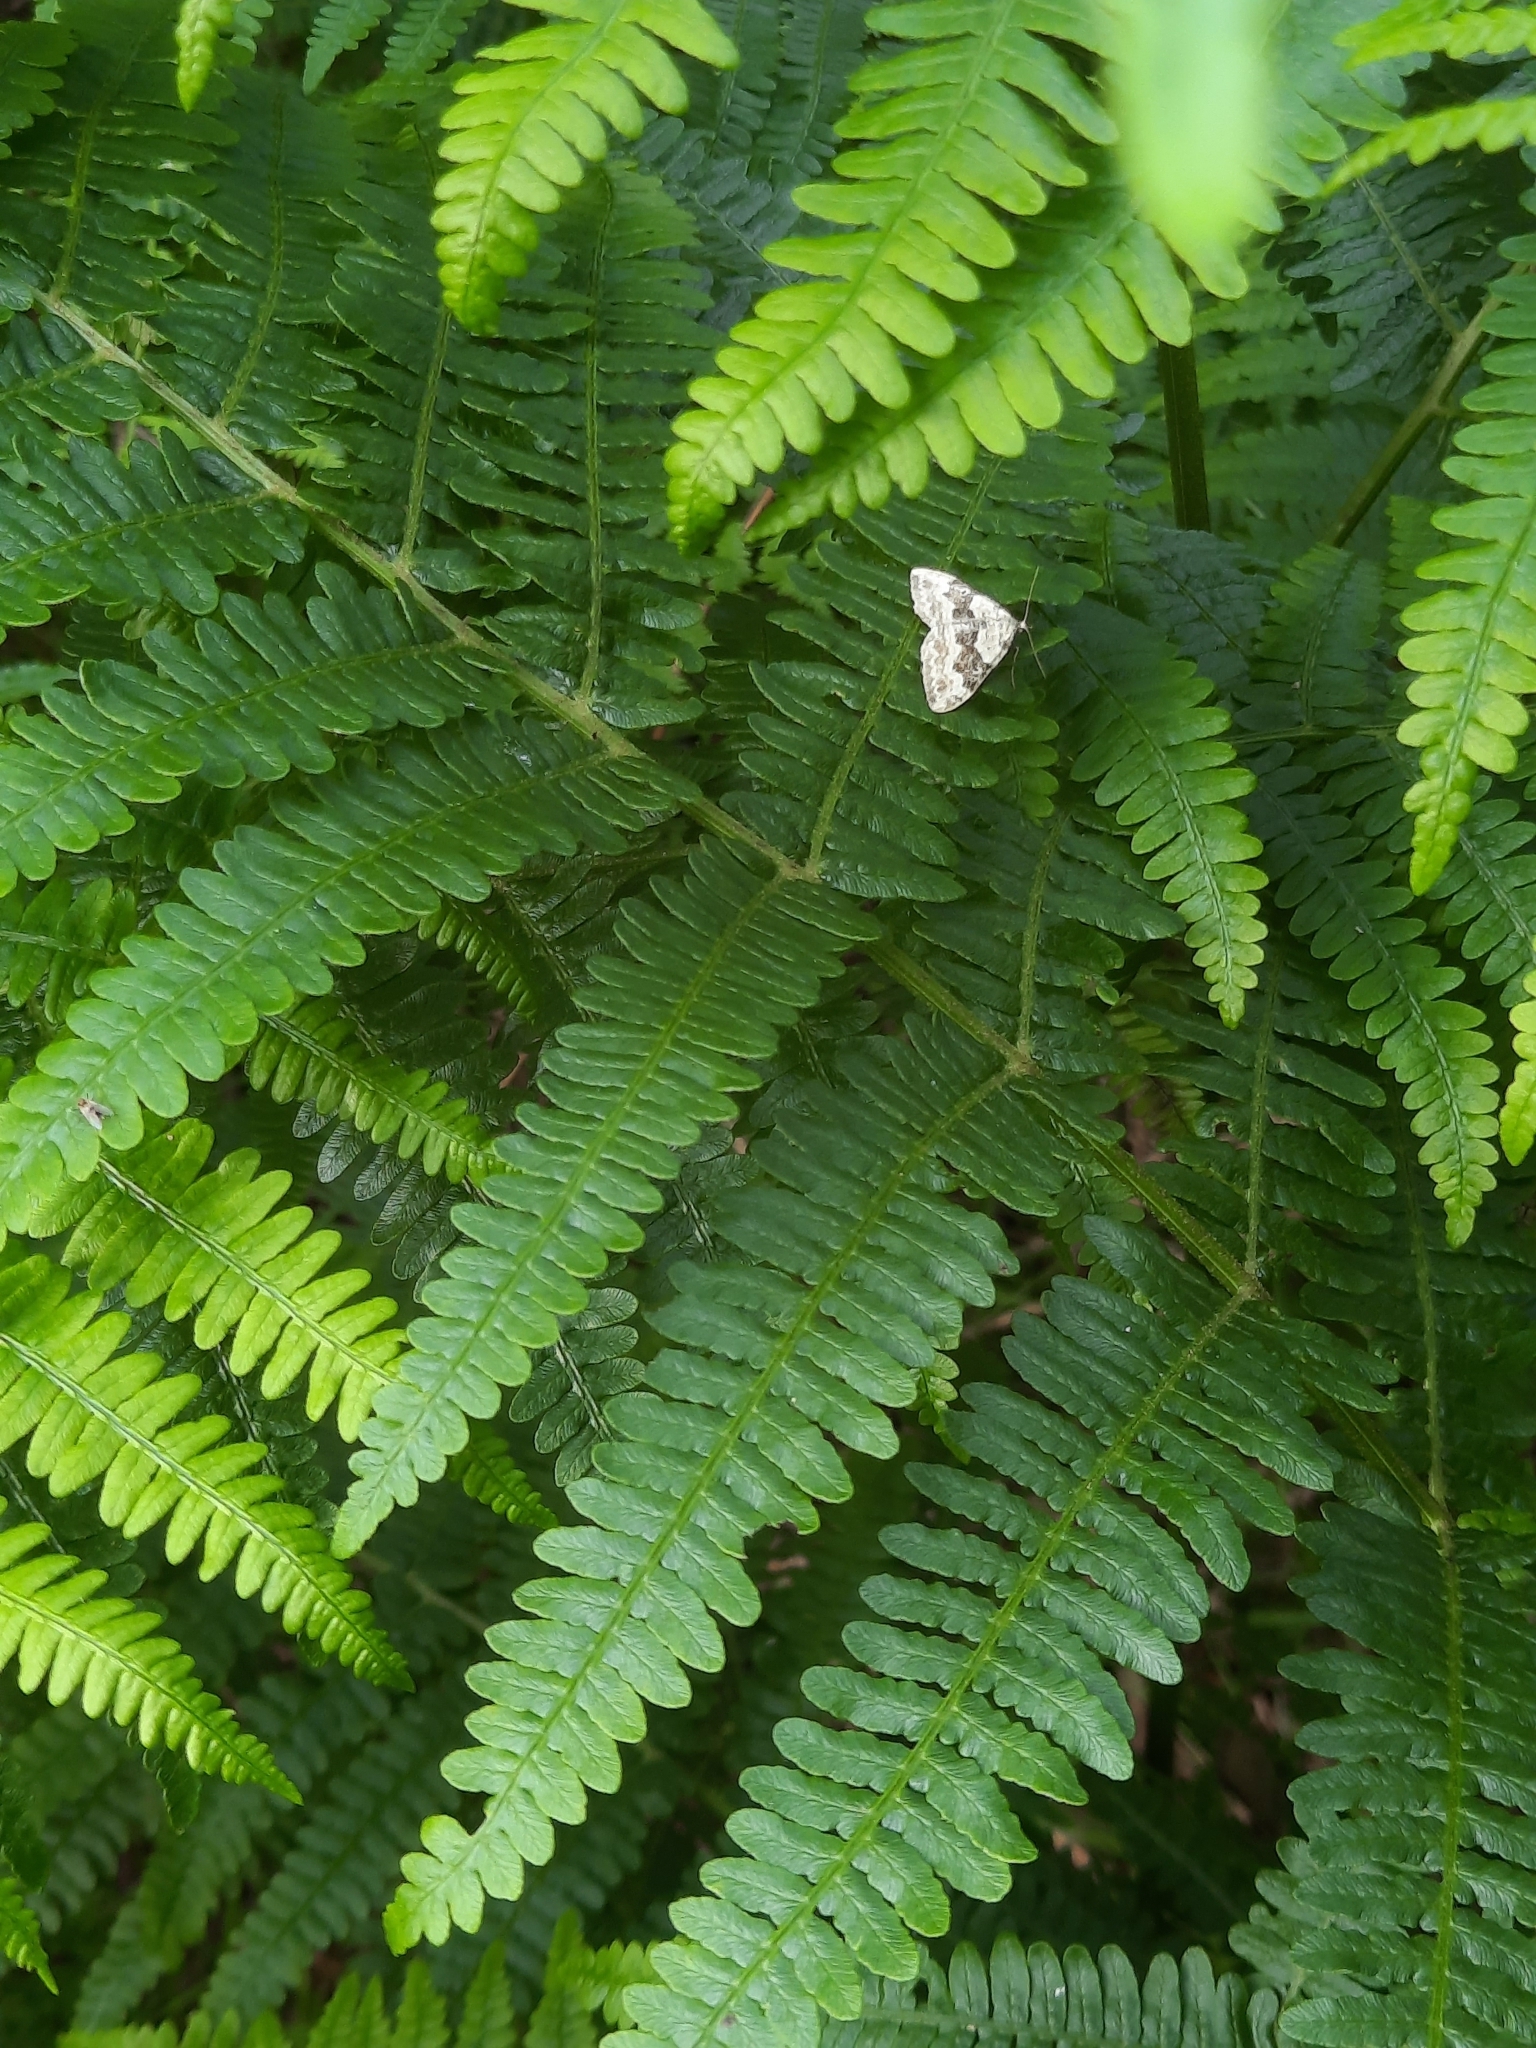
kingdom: Animalia
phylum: Arthropoda
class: Insecta
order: Lepidoptera
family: Geometridae
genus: Xanthorhoe
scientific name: Xanthorhoe montanata
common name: Silver-ground carpet
